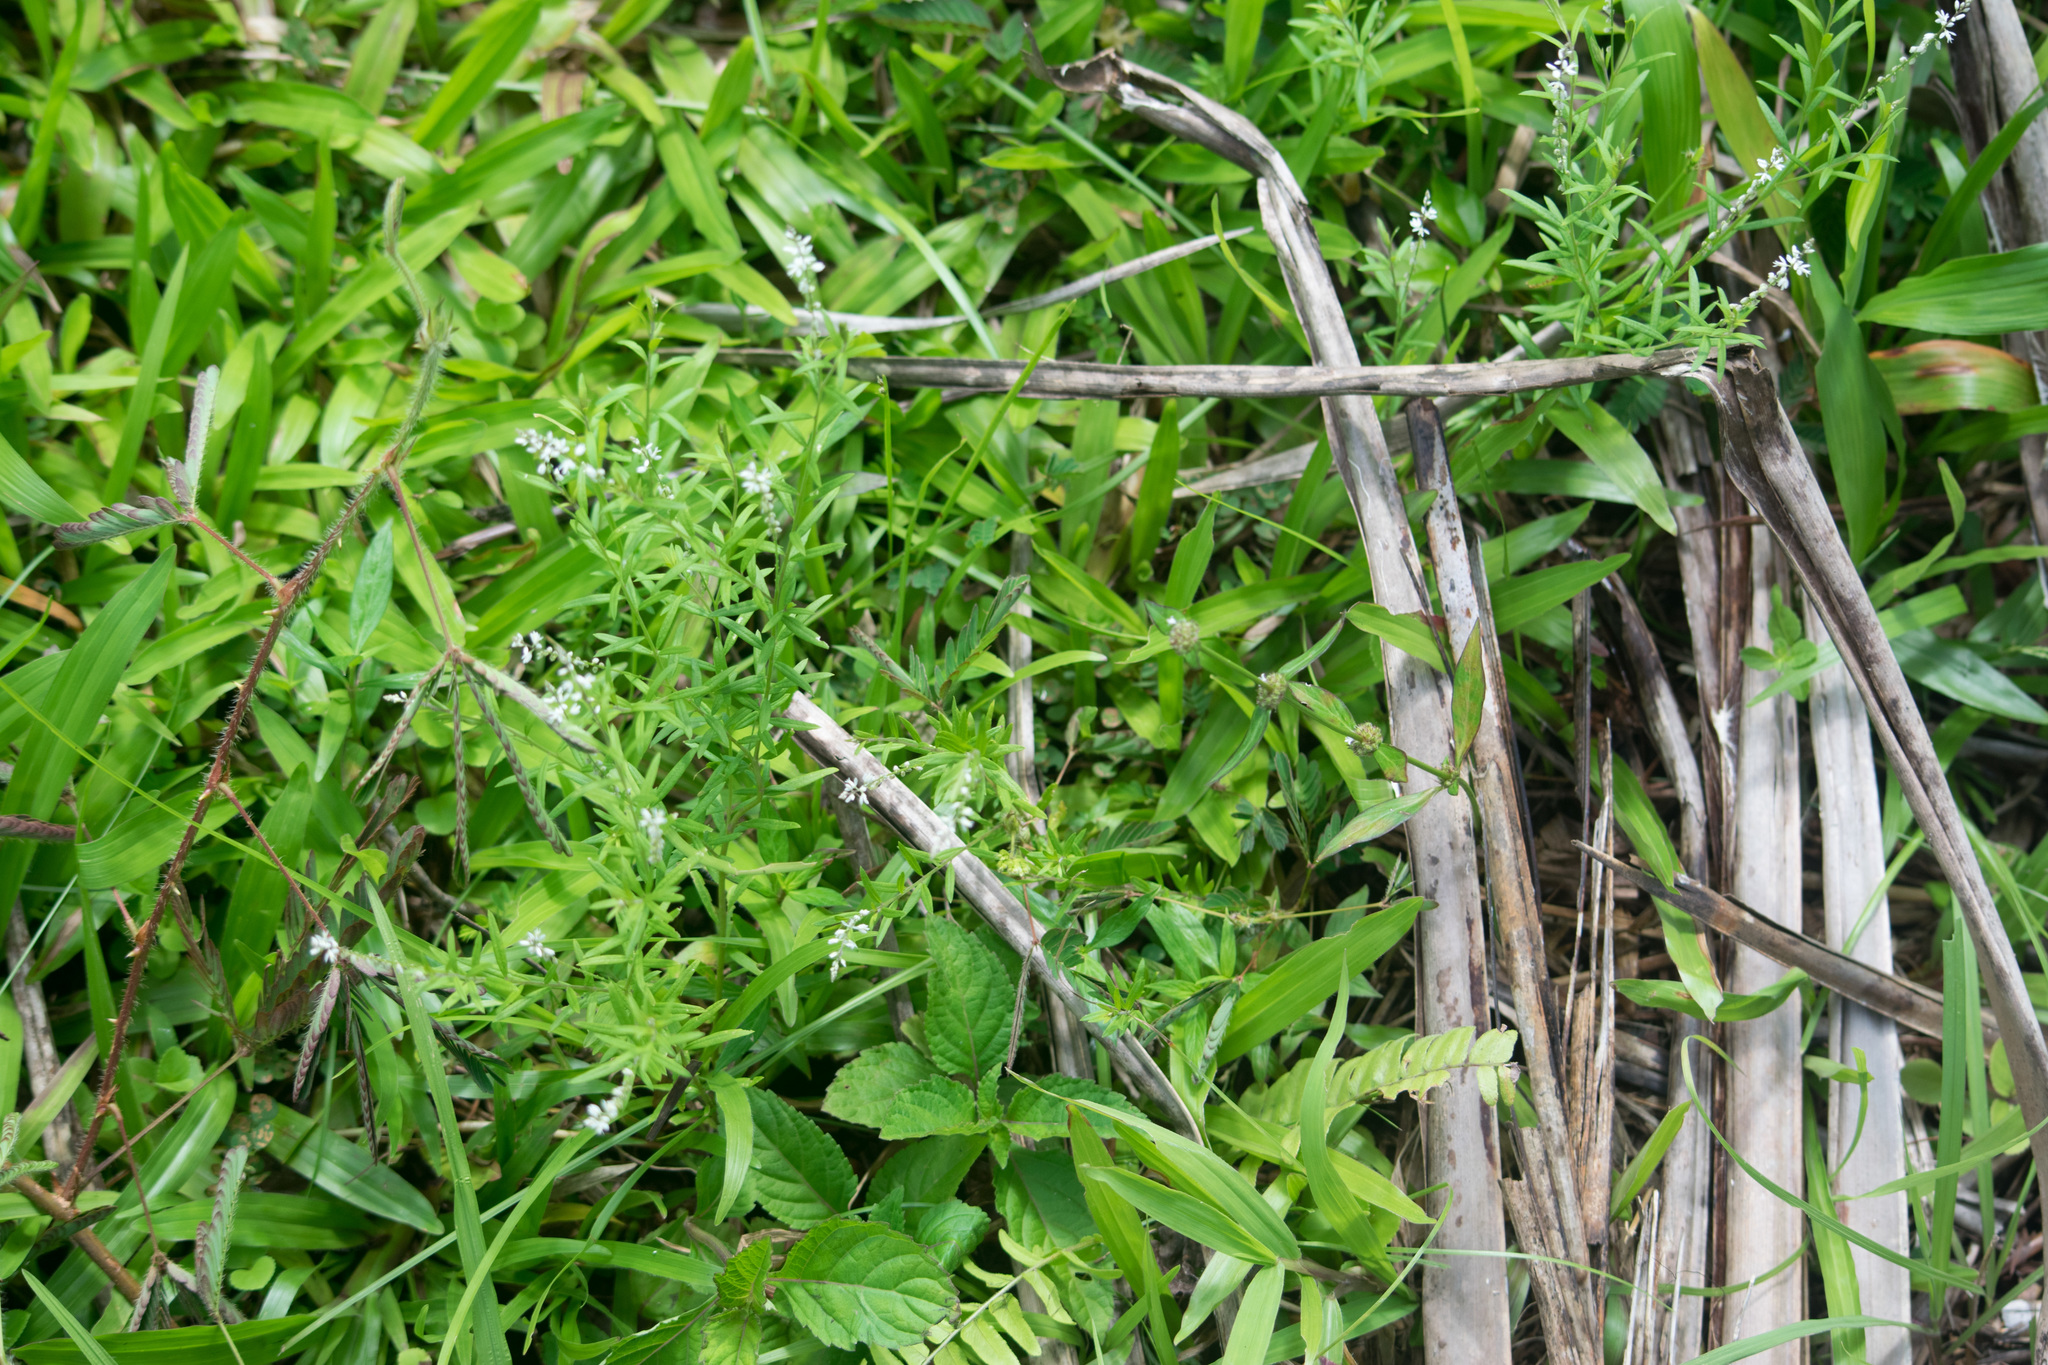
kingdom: Plantae
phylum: Tracheophyta
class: Magnoliopsida
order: Fabales
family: Polygalaceae
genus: Polygala
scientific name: Polygala paniculata
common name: Orosne
